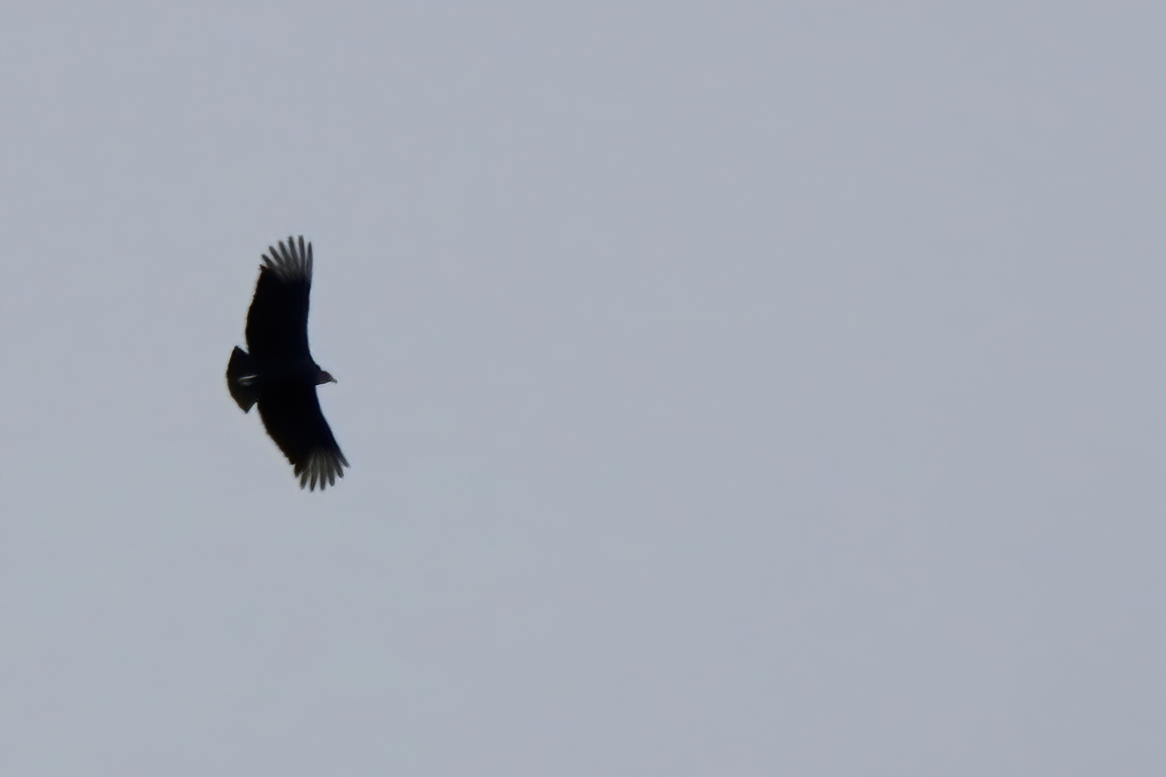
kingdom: Animalia
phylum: Chordata
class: Aves
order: Accipitriformes
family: Cathartidae
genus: Coragyps
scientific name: Coragyps atratus
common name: Black vulture
